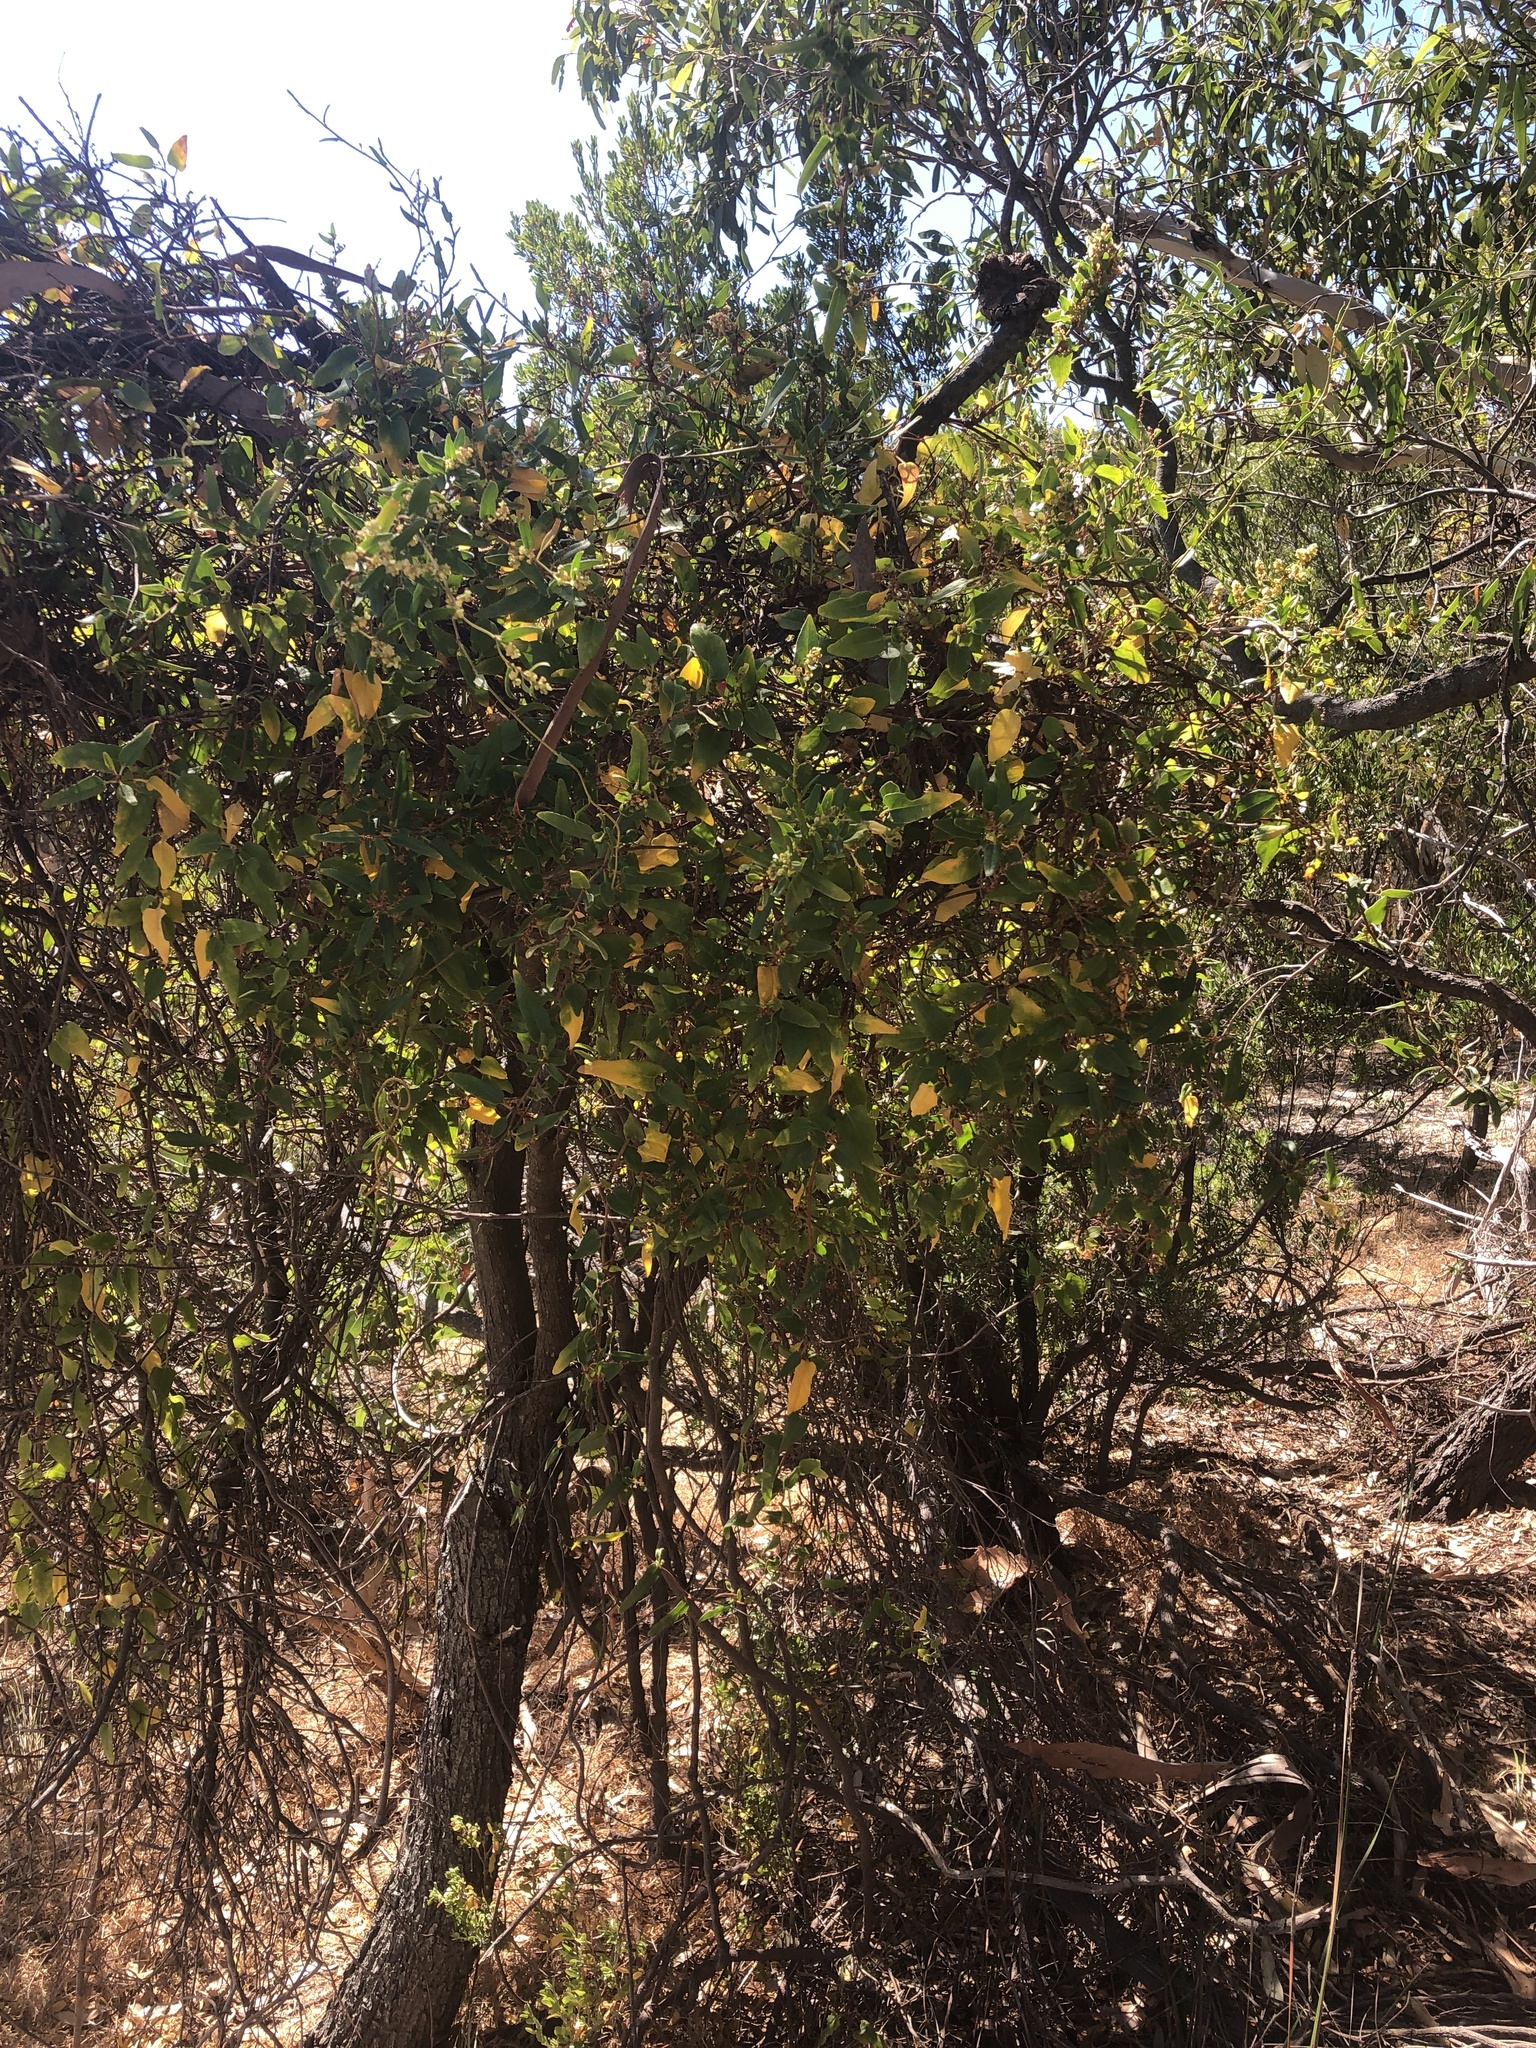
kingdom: Plantae
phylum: Tracheophyta
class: Magnoliopsida
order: Caryophyllales
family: Polygonaceae
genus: Muehlenbeckia
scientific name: Muehlenbeckia gunnii
